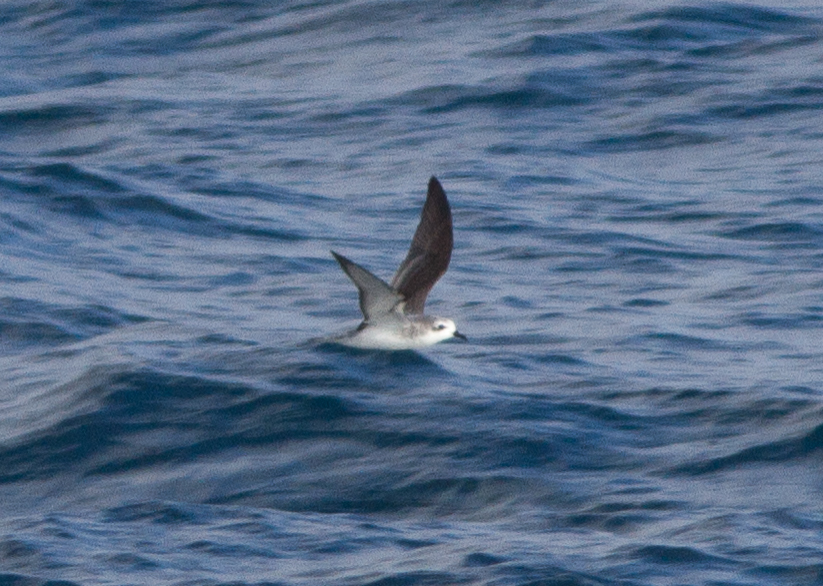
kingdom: Animalia
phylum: Chordata
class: Aves
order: Procellariiformes
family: Procellariidae
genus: Pterodroma
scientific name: Pterodroma cookii
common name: Cook's petrel
